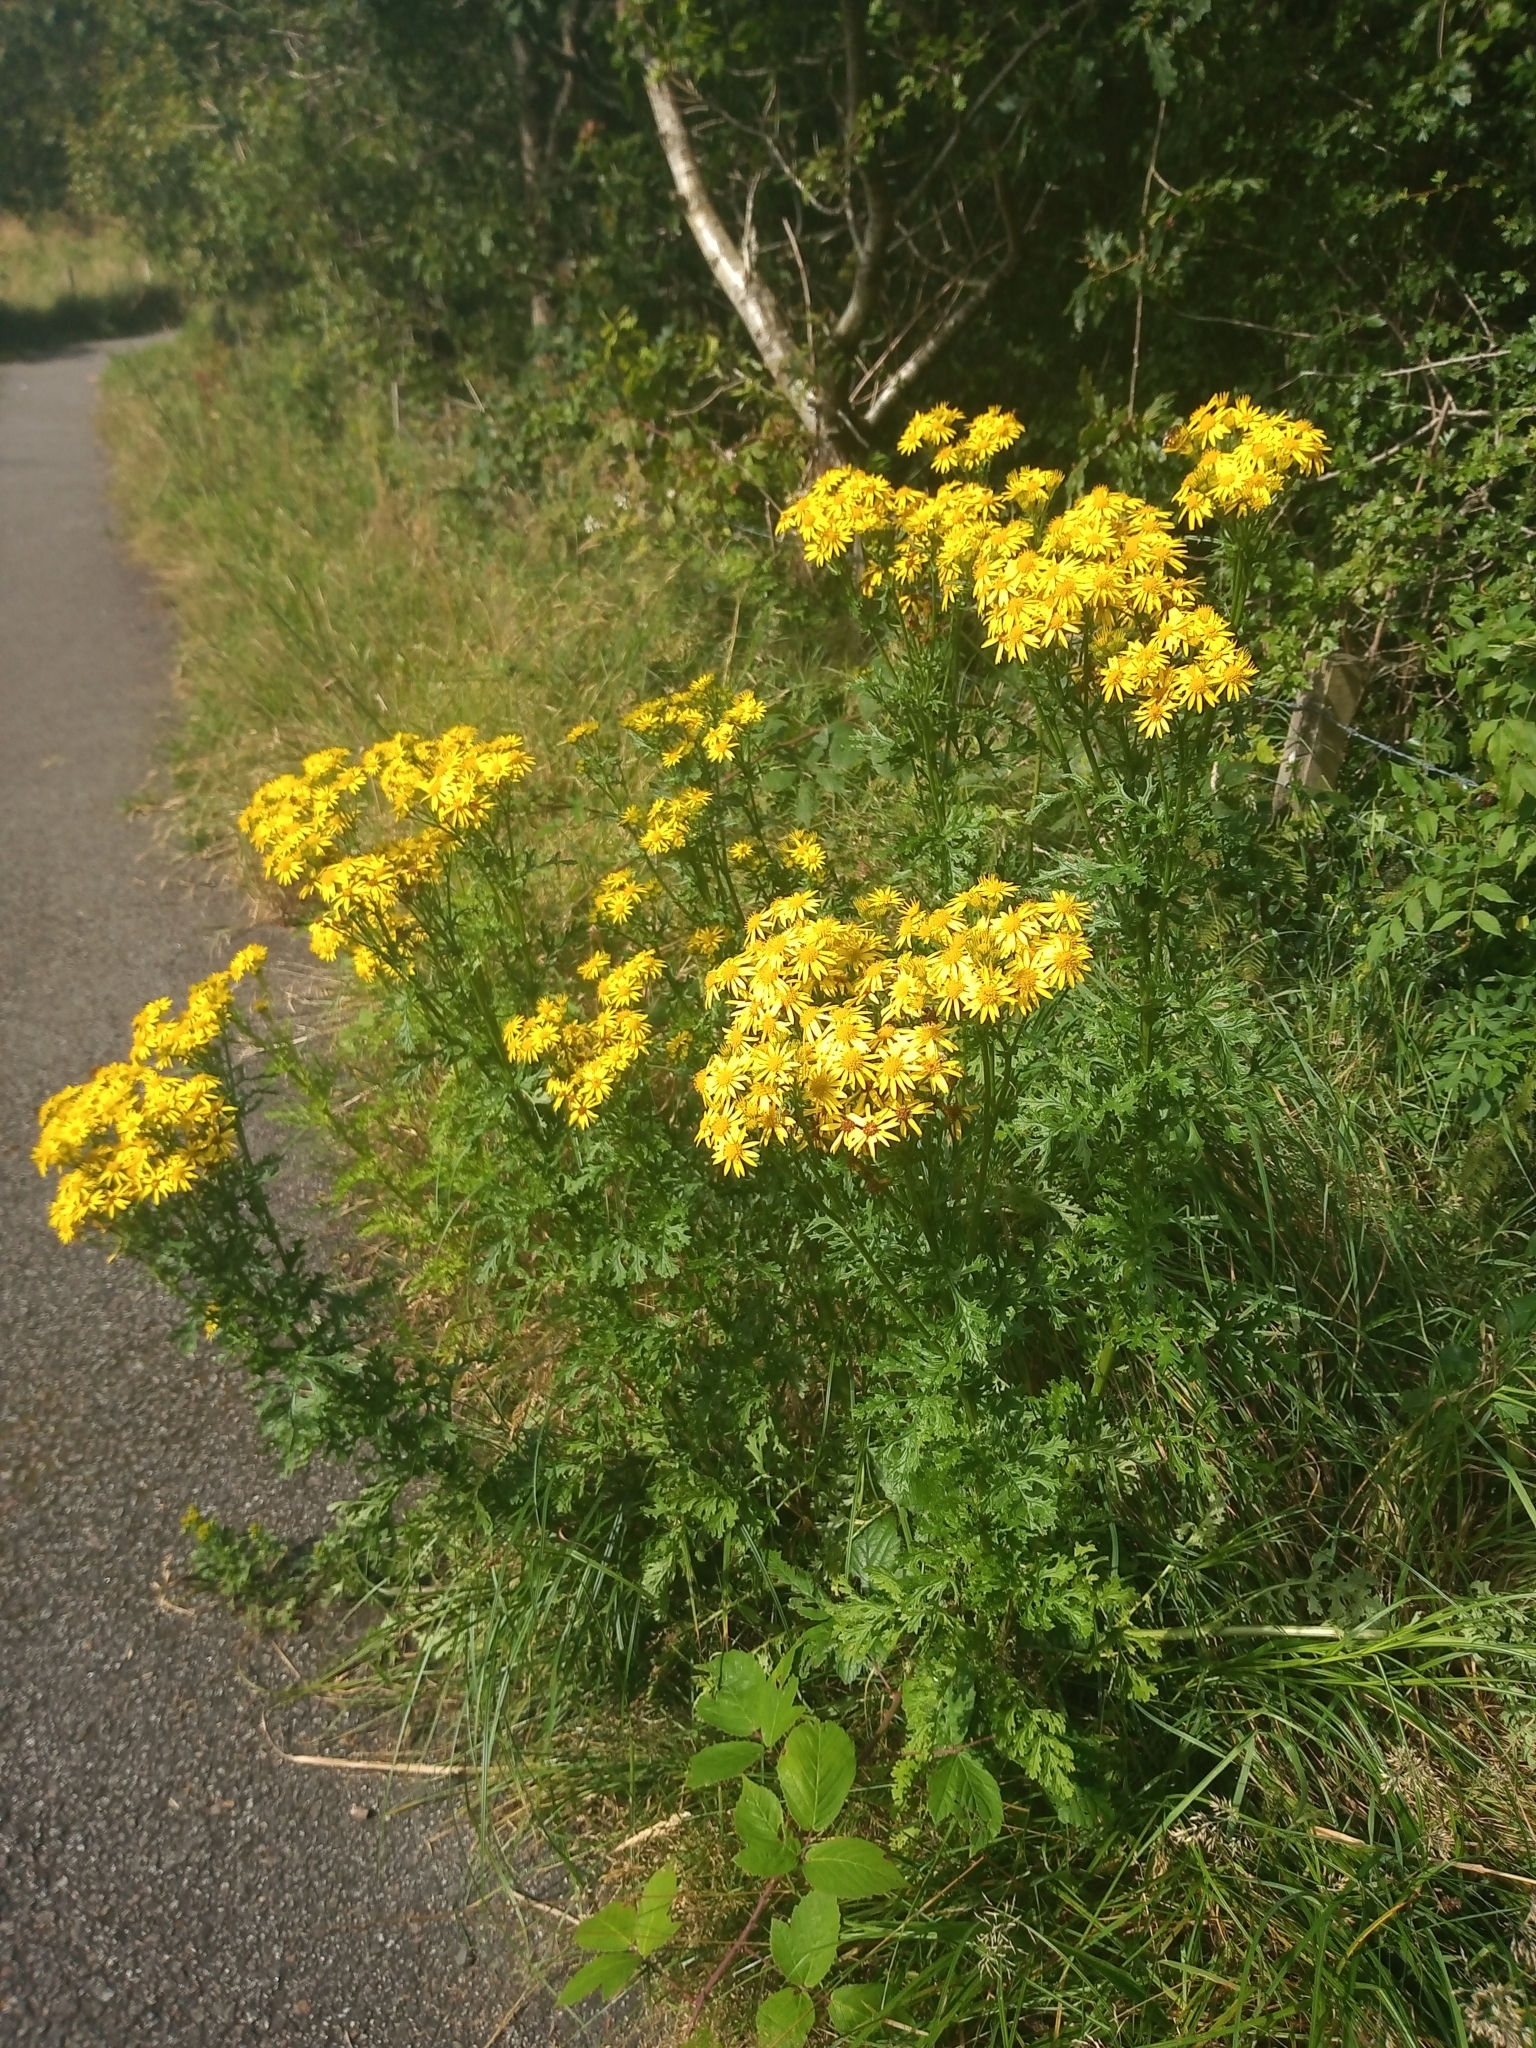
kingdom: Plantae
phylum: Tracheophyta
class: Magnoliopsida
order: Asterales
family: Asteraceae
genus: Jacobaea
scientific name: Jacobaea vulgaris
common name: Stinking willie
